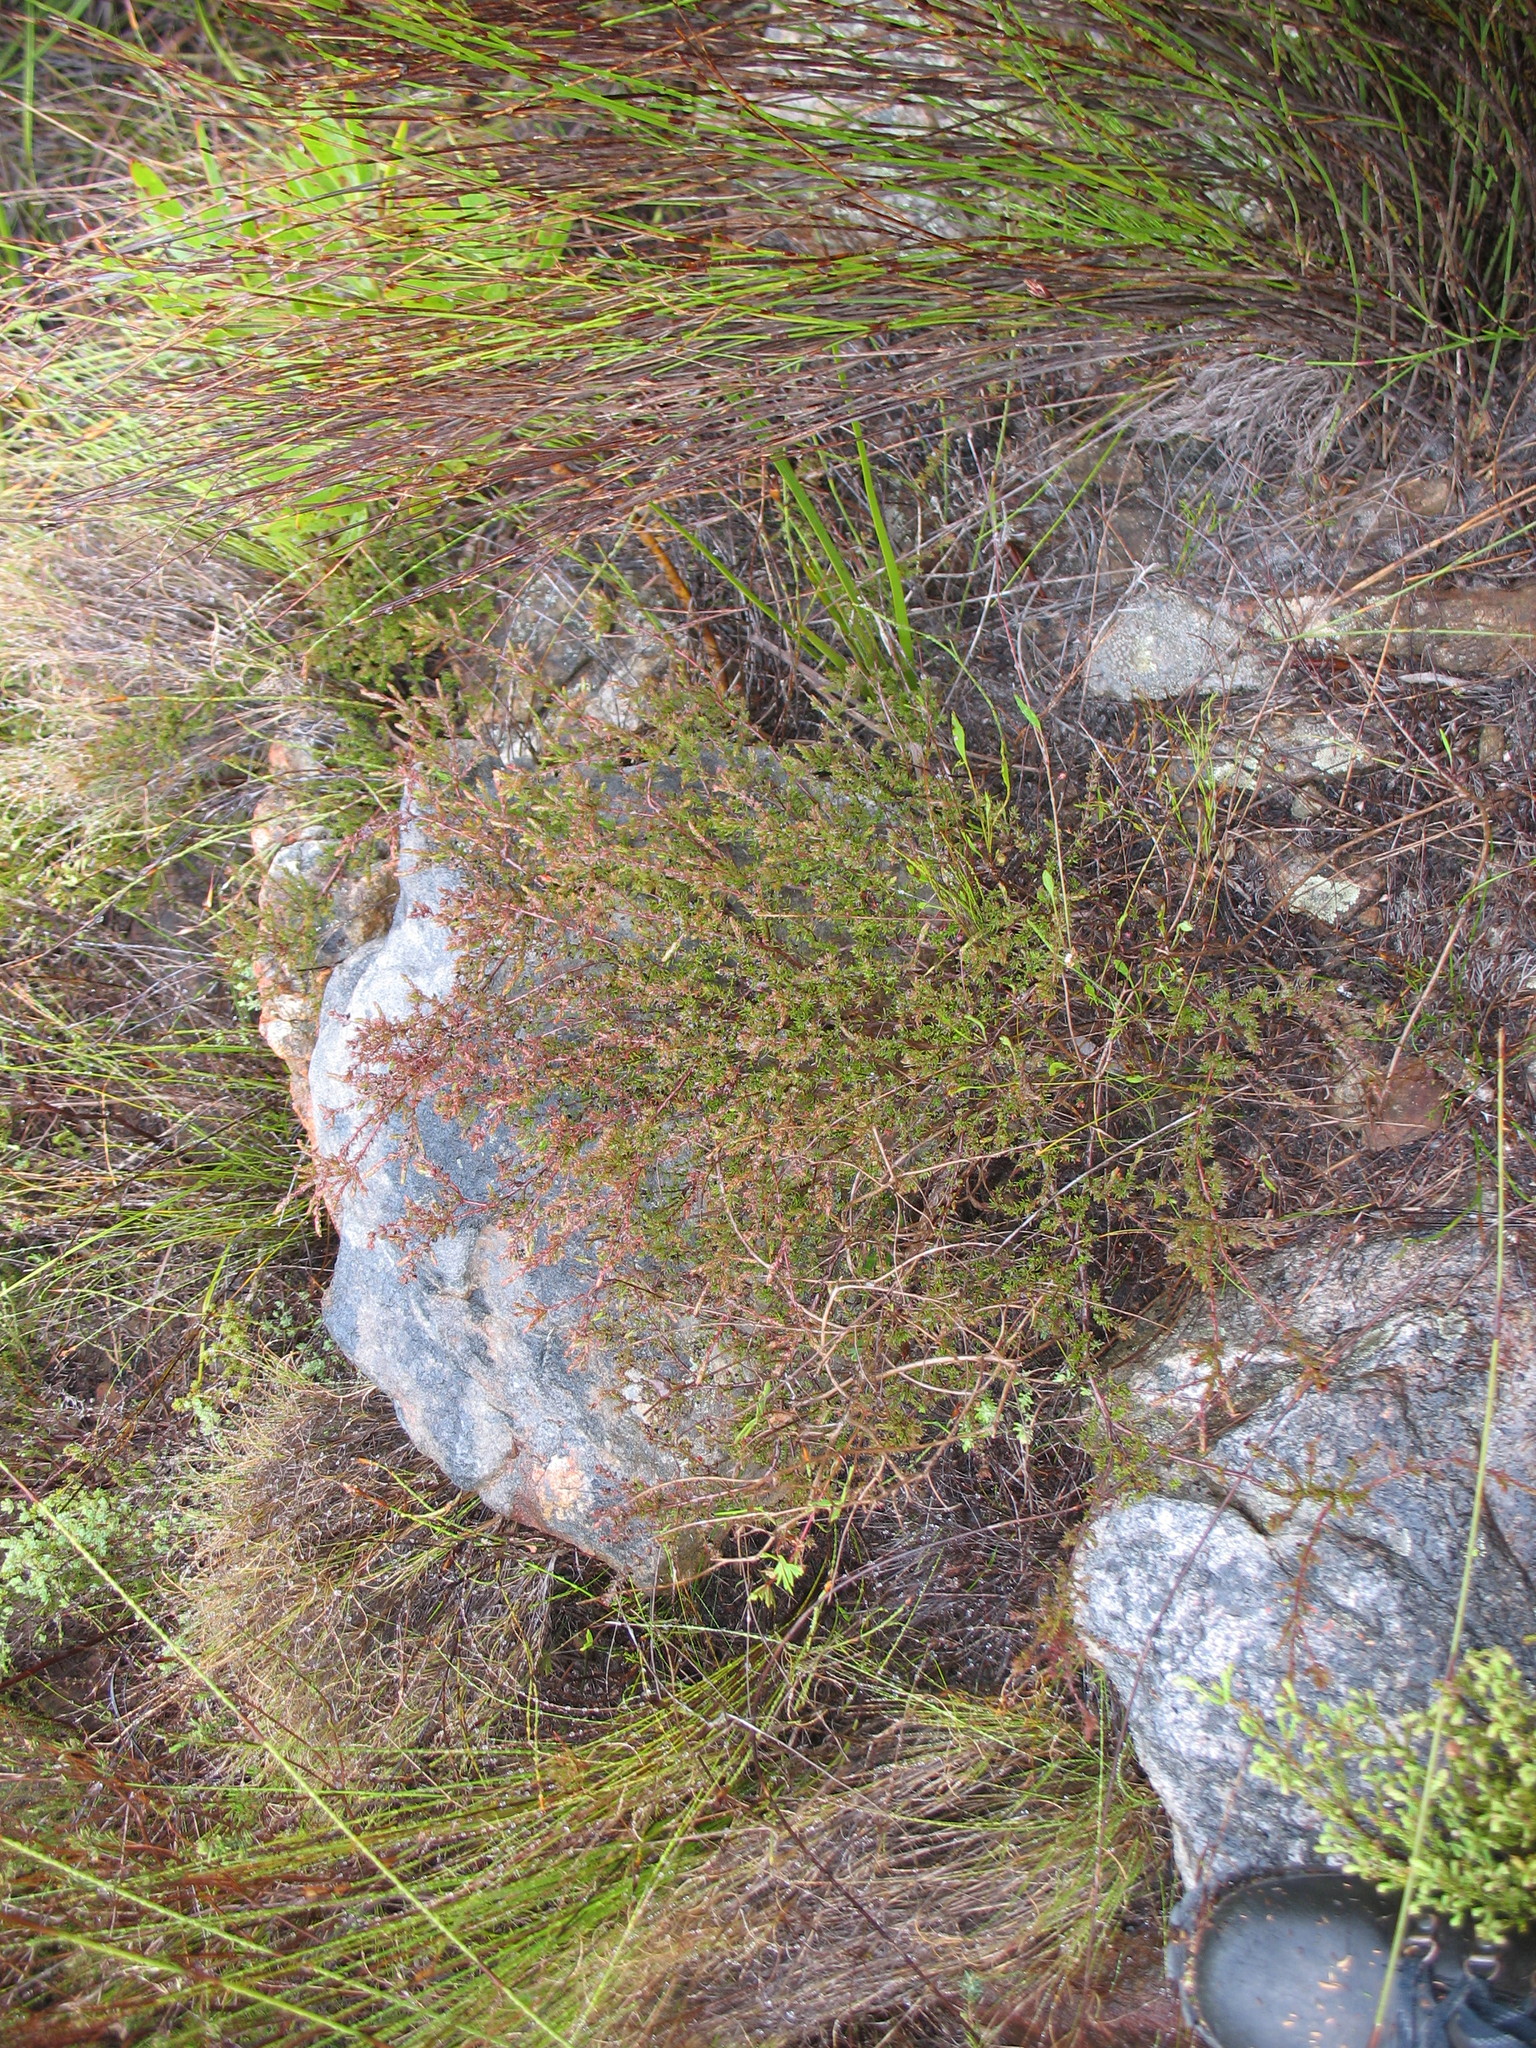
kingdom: Plantae
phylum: Tracheophyta
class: Magnoliopsida
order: Ericales
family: Ericaceae
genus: Erica
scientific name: Erica anguliger
